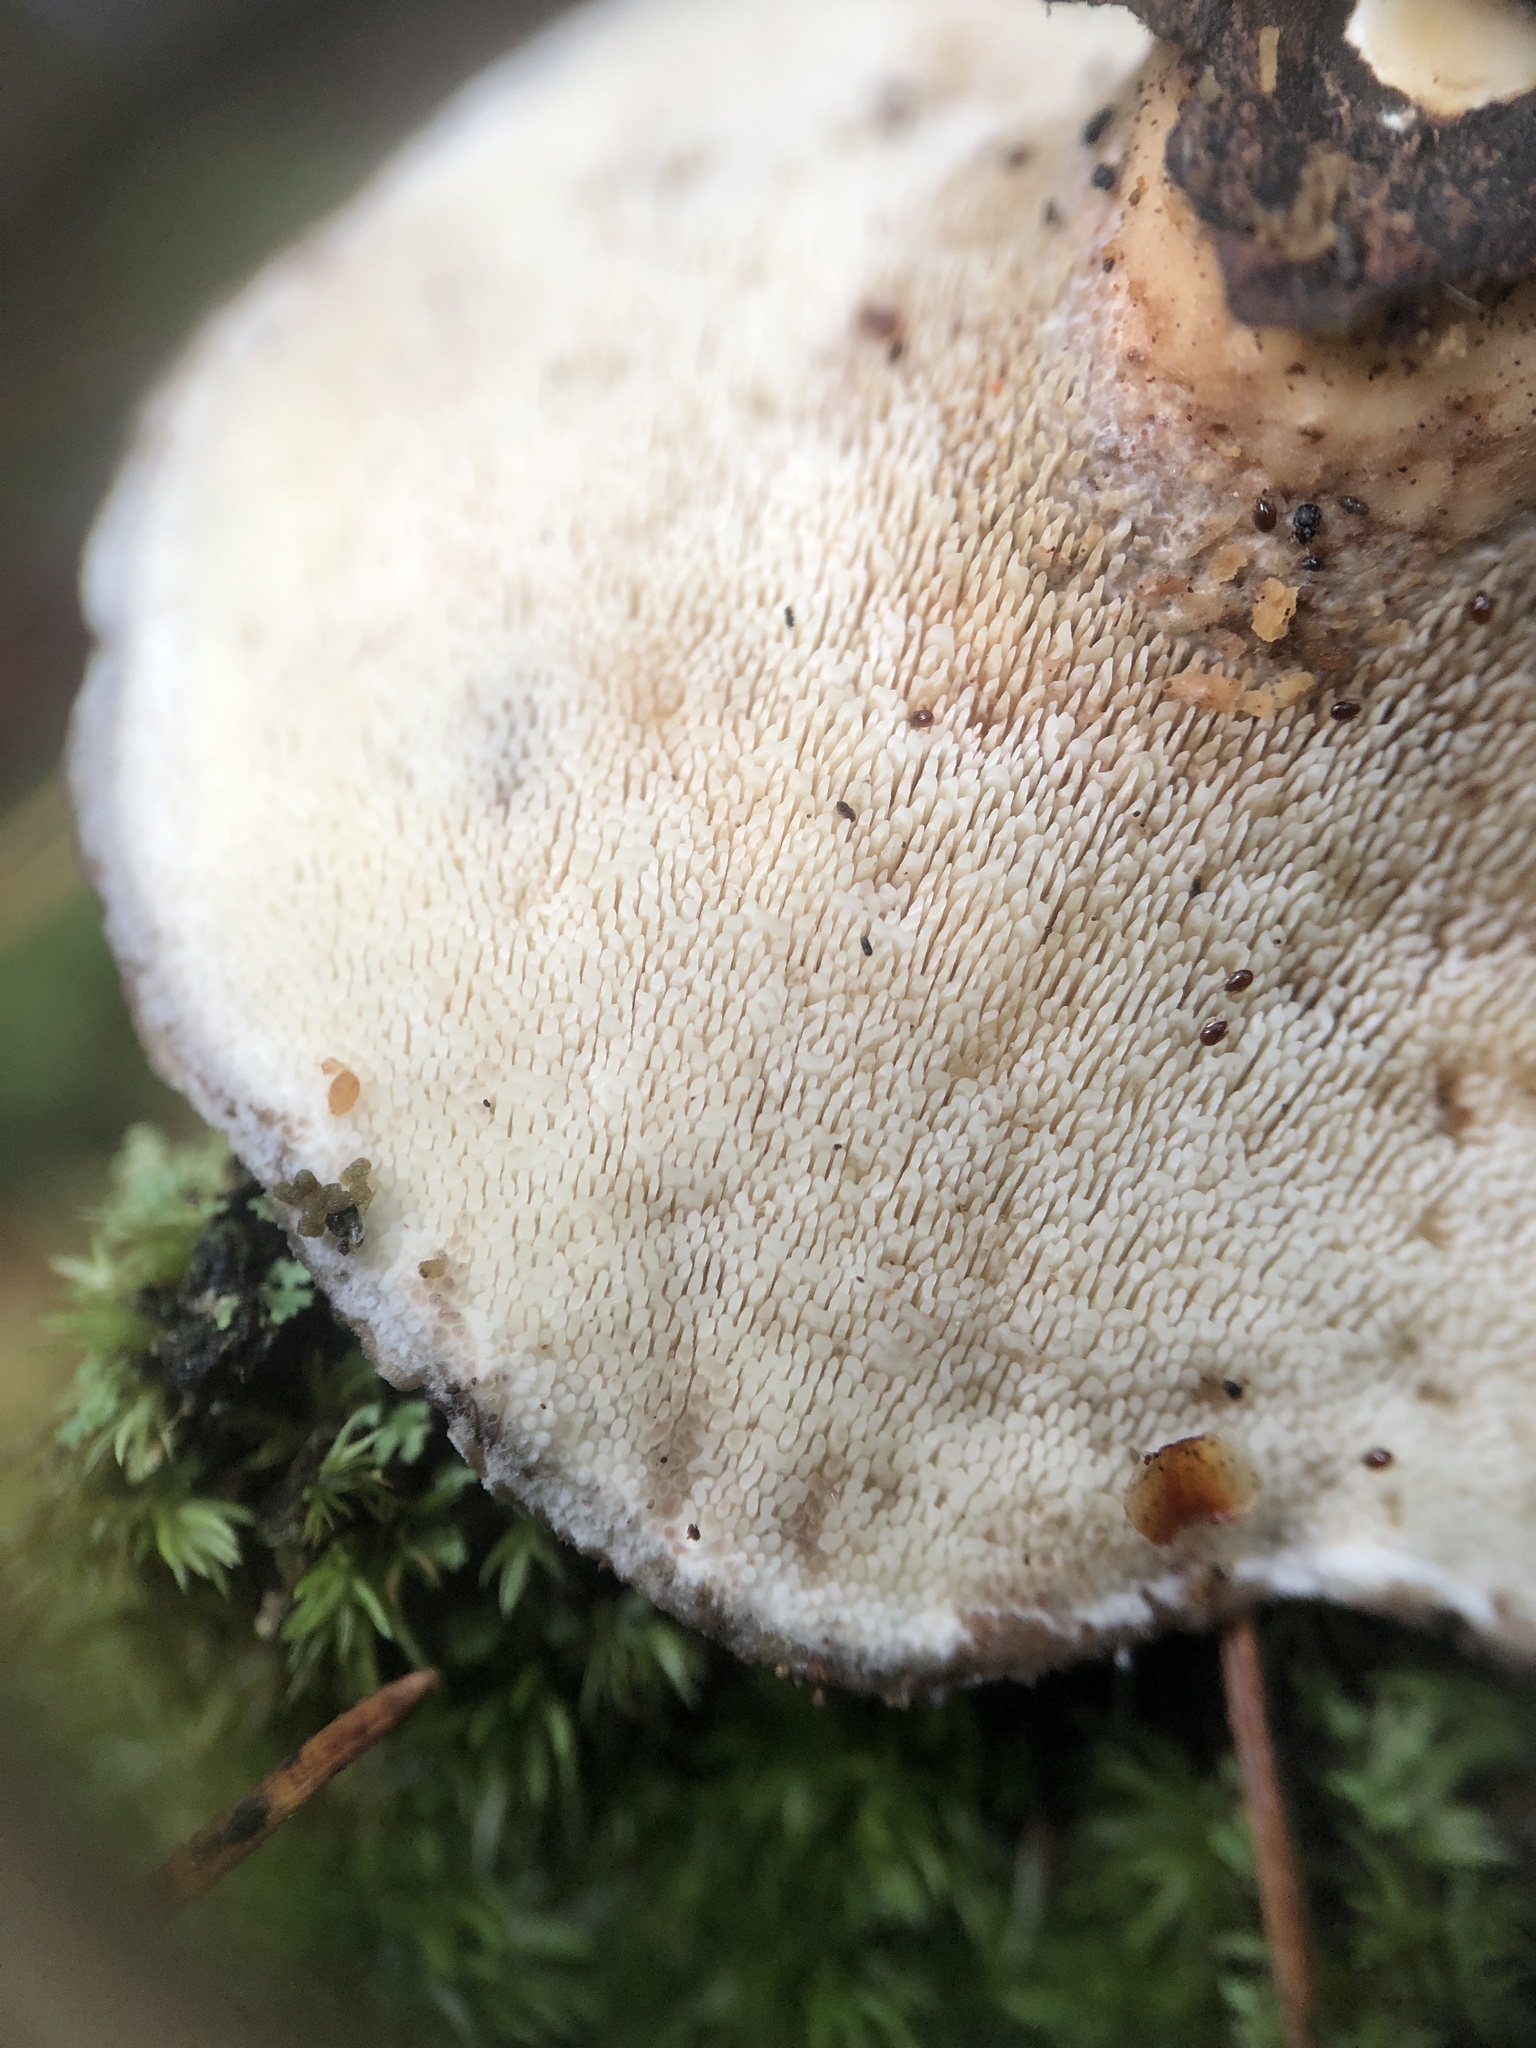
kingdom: Fungi
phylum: Basidiomycota
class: Agaricomycetes
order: Polyporales
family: Steccherinaceae
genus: Mycorrhaphium
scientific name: Mycorrhaphium adustum
